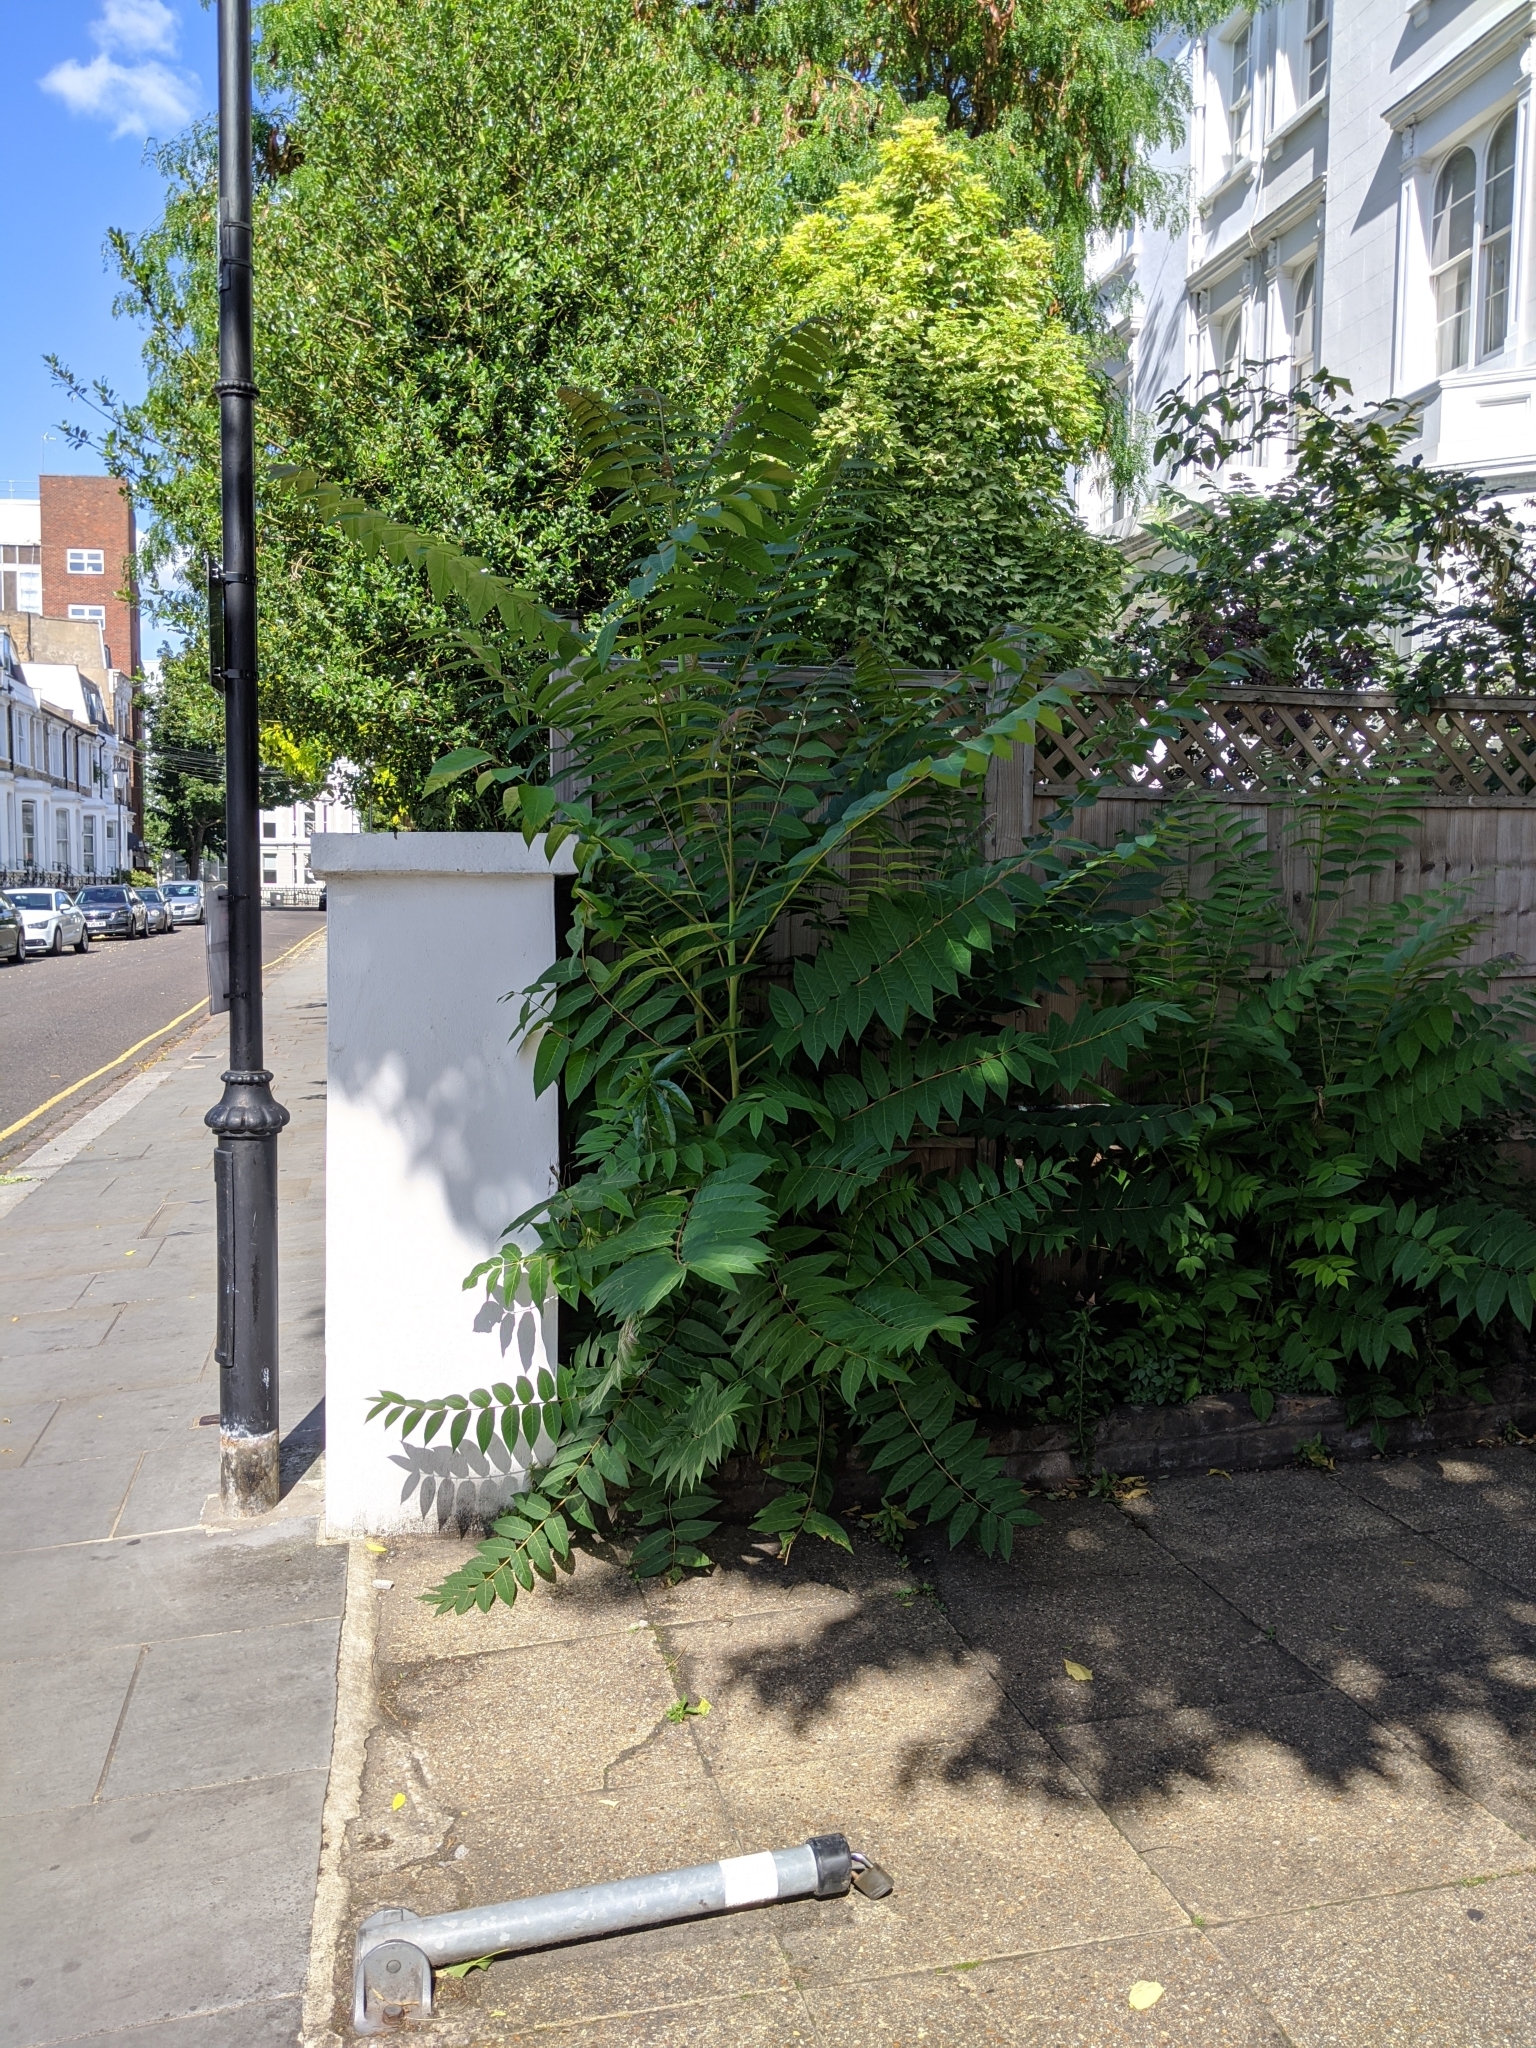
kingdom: Plantae
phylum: Tracheophyta
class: Magnoliopsida
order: Sapindales
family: Simaroubaceae
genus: Ailanthus
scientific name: Ailanthus altissima
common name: Tree-of-heaven
